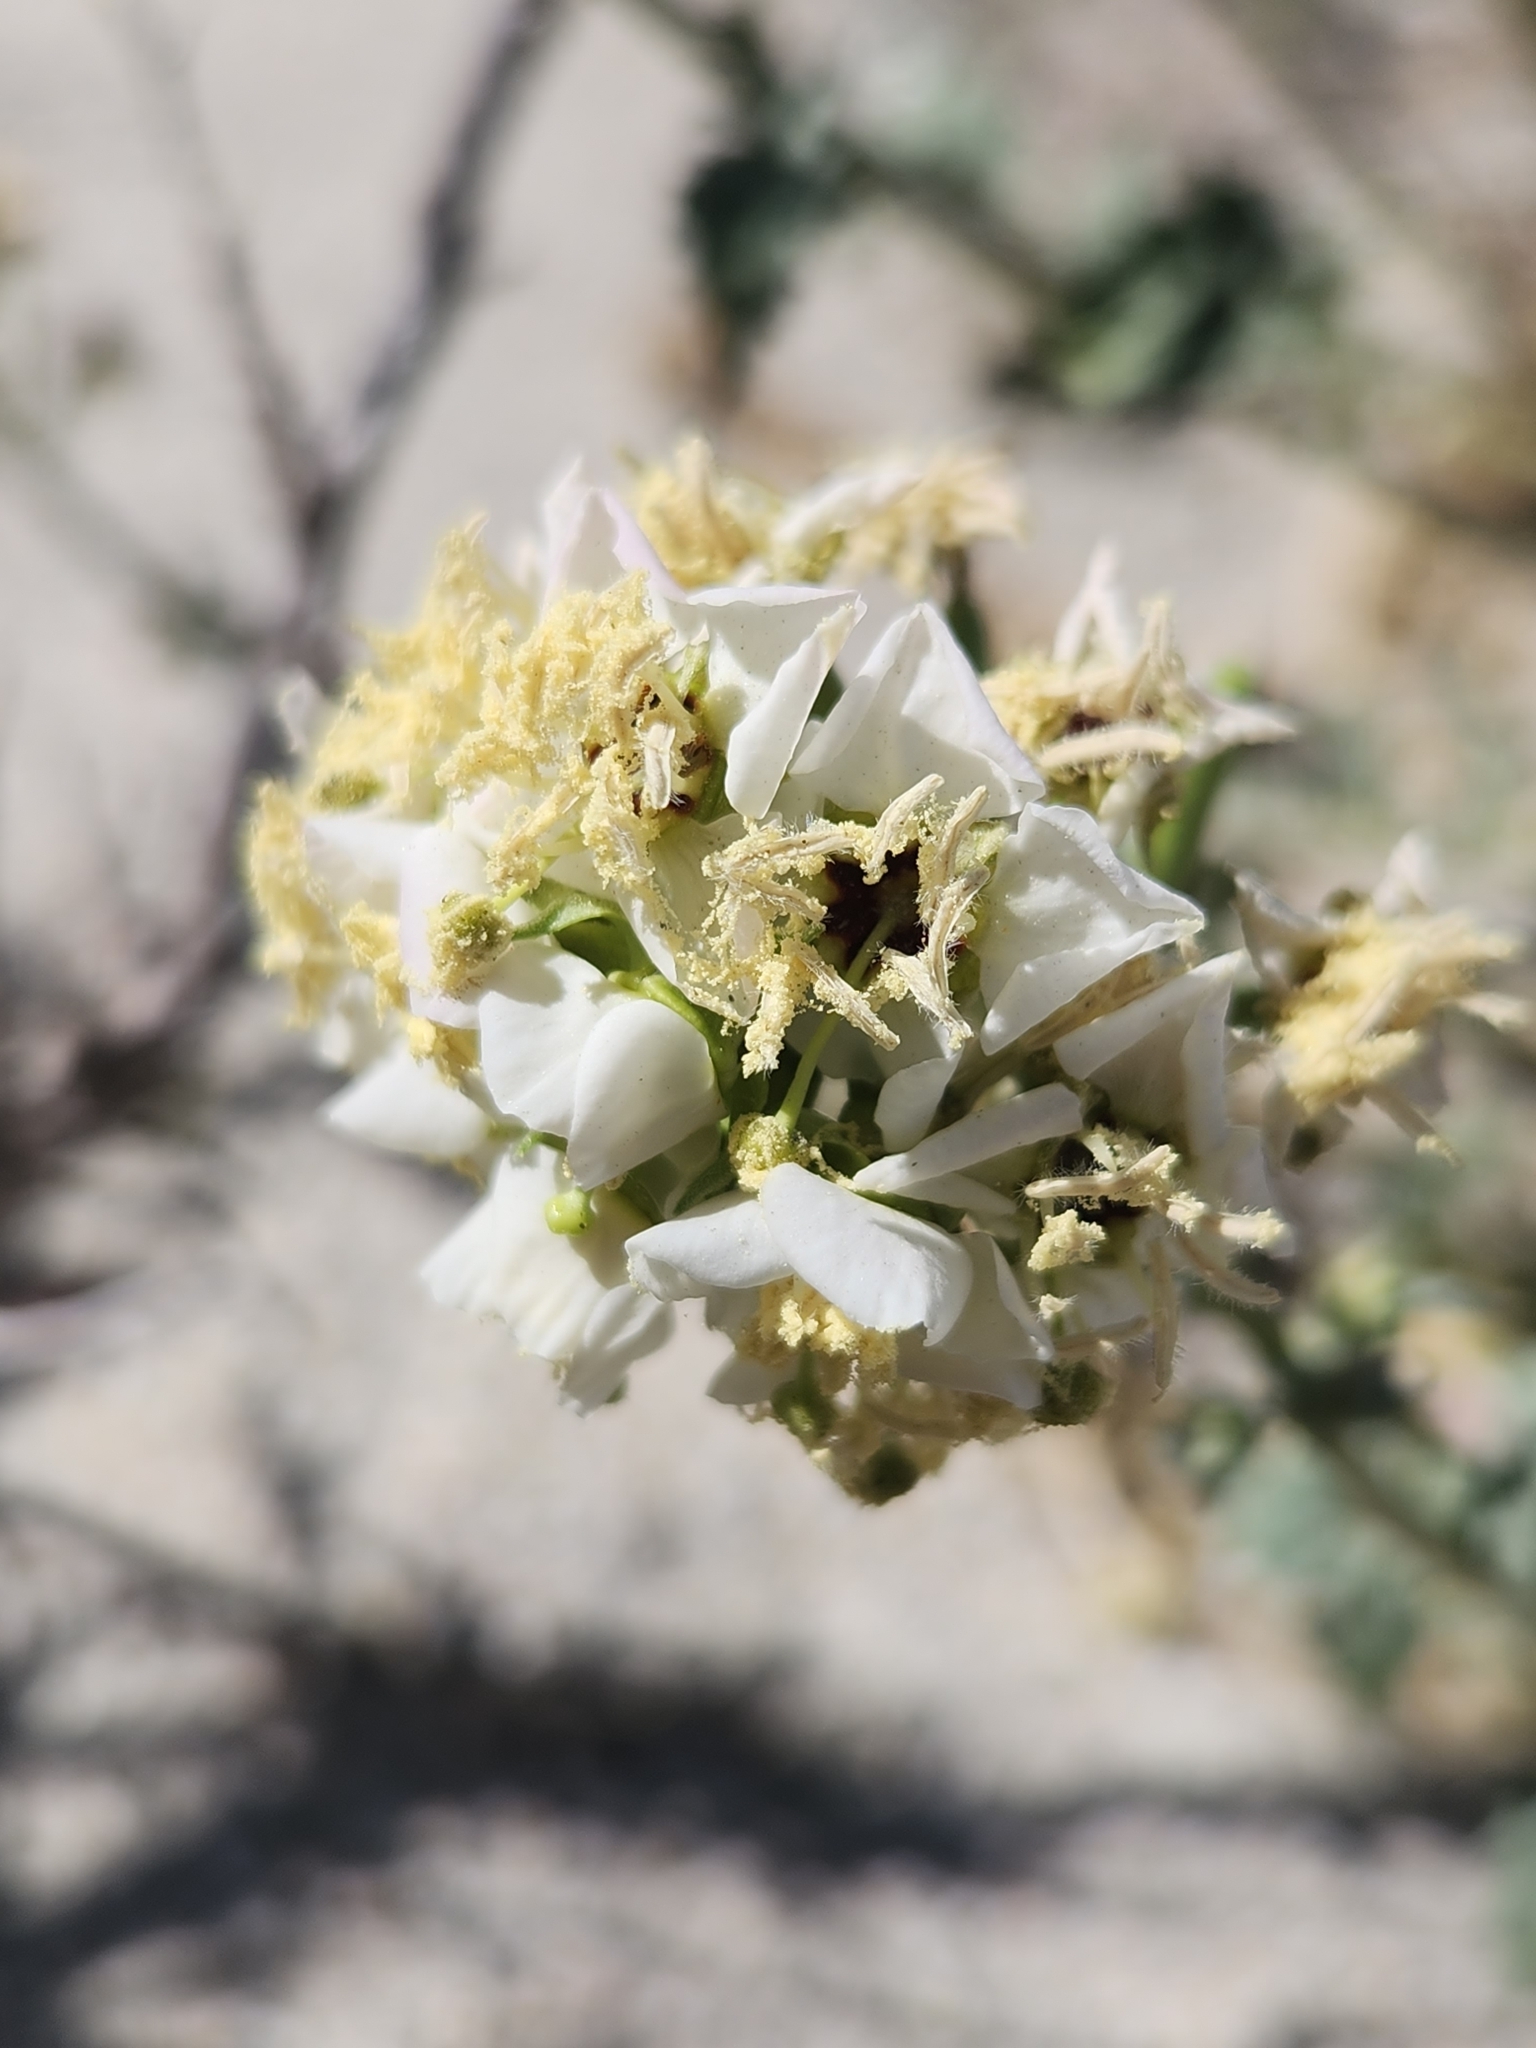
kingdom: Plantae
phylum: Tracheophyta
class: Magnoliopsida
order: Myrtales
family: Onagraceae
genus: Chylismia
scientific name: Chylismia claviformis
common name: Browneyes
